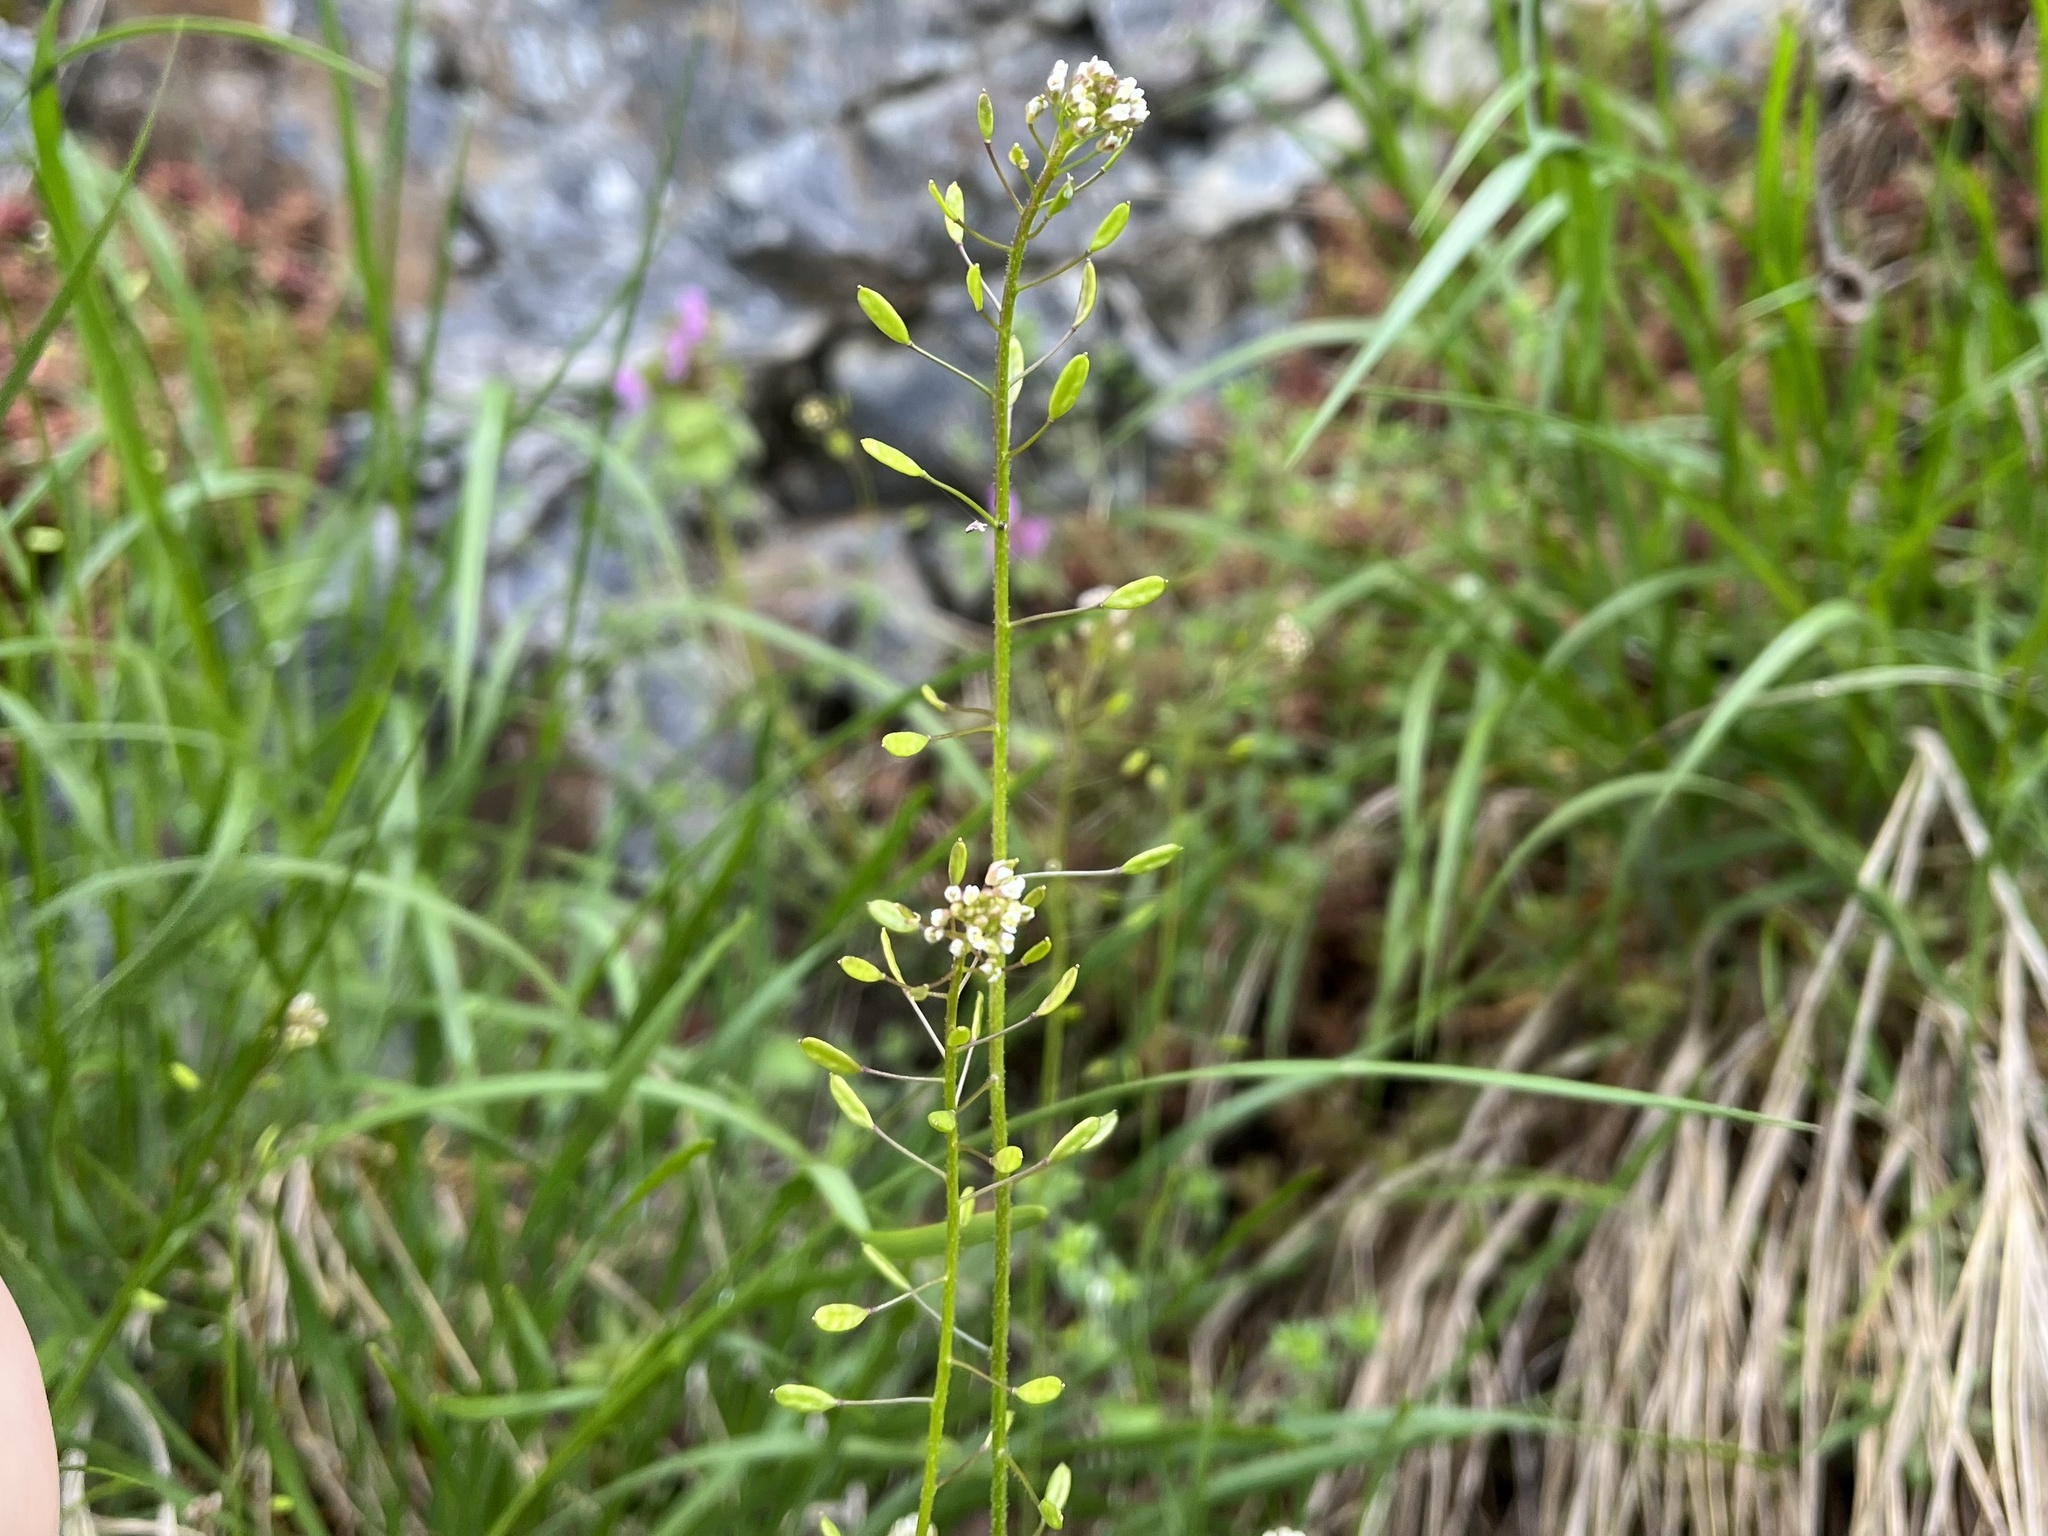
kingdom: Plantae
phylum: Tracheophyta
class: Magnoliopsida
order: Brassicales
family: Brassicaceae
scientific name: Brassicaceae
